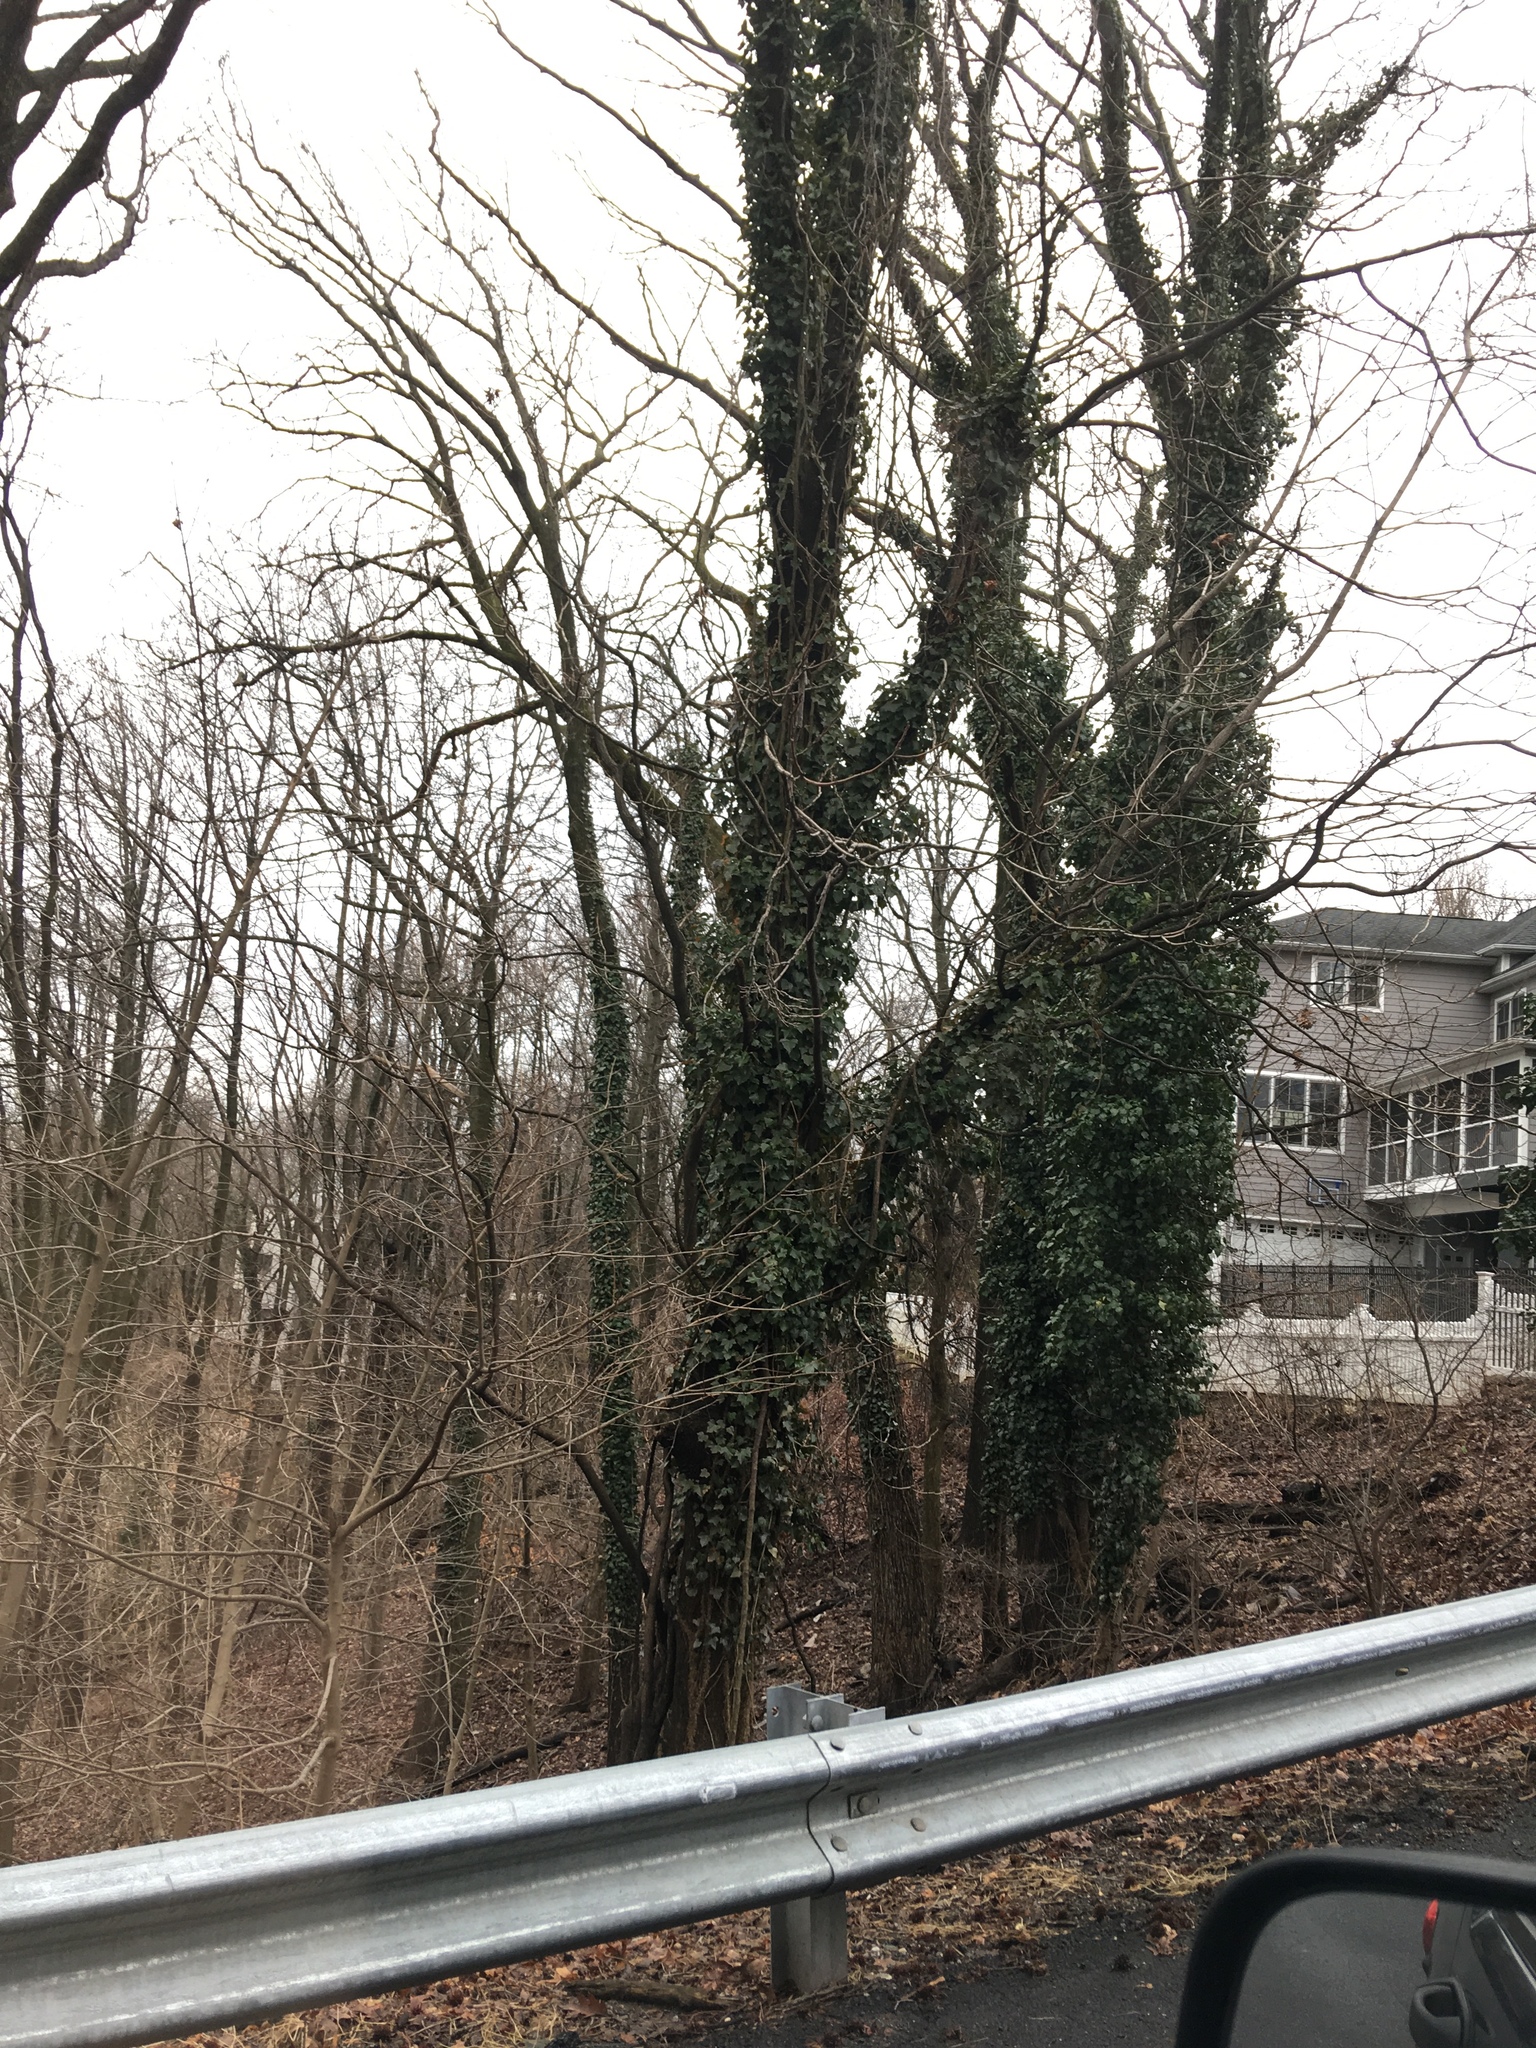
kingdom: Plantae
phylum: Tracheophyta
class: Magnoliopsida
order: Apiales
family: Araliaceae
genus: Hedera
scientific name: Hedera helix
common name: Ivy
